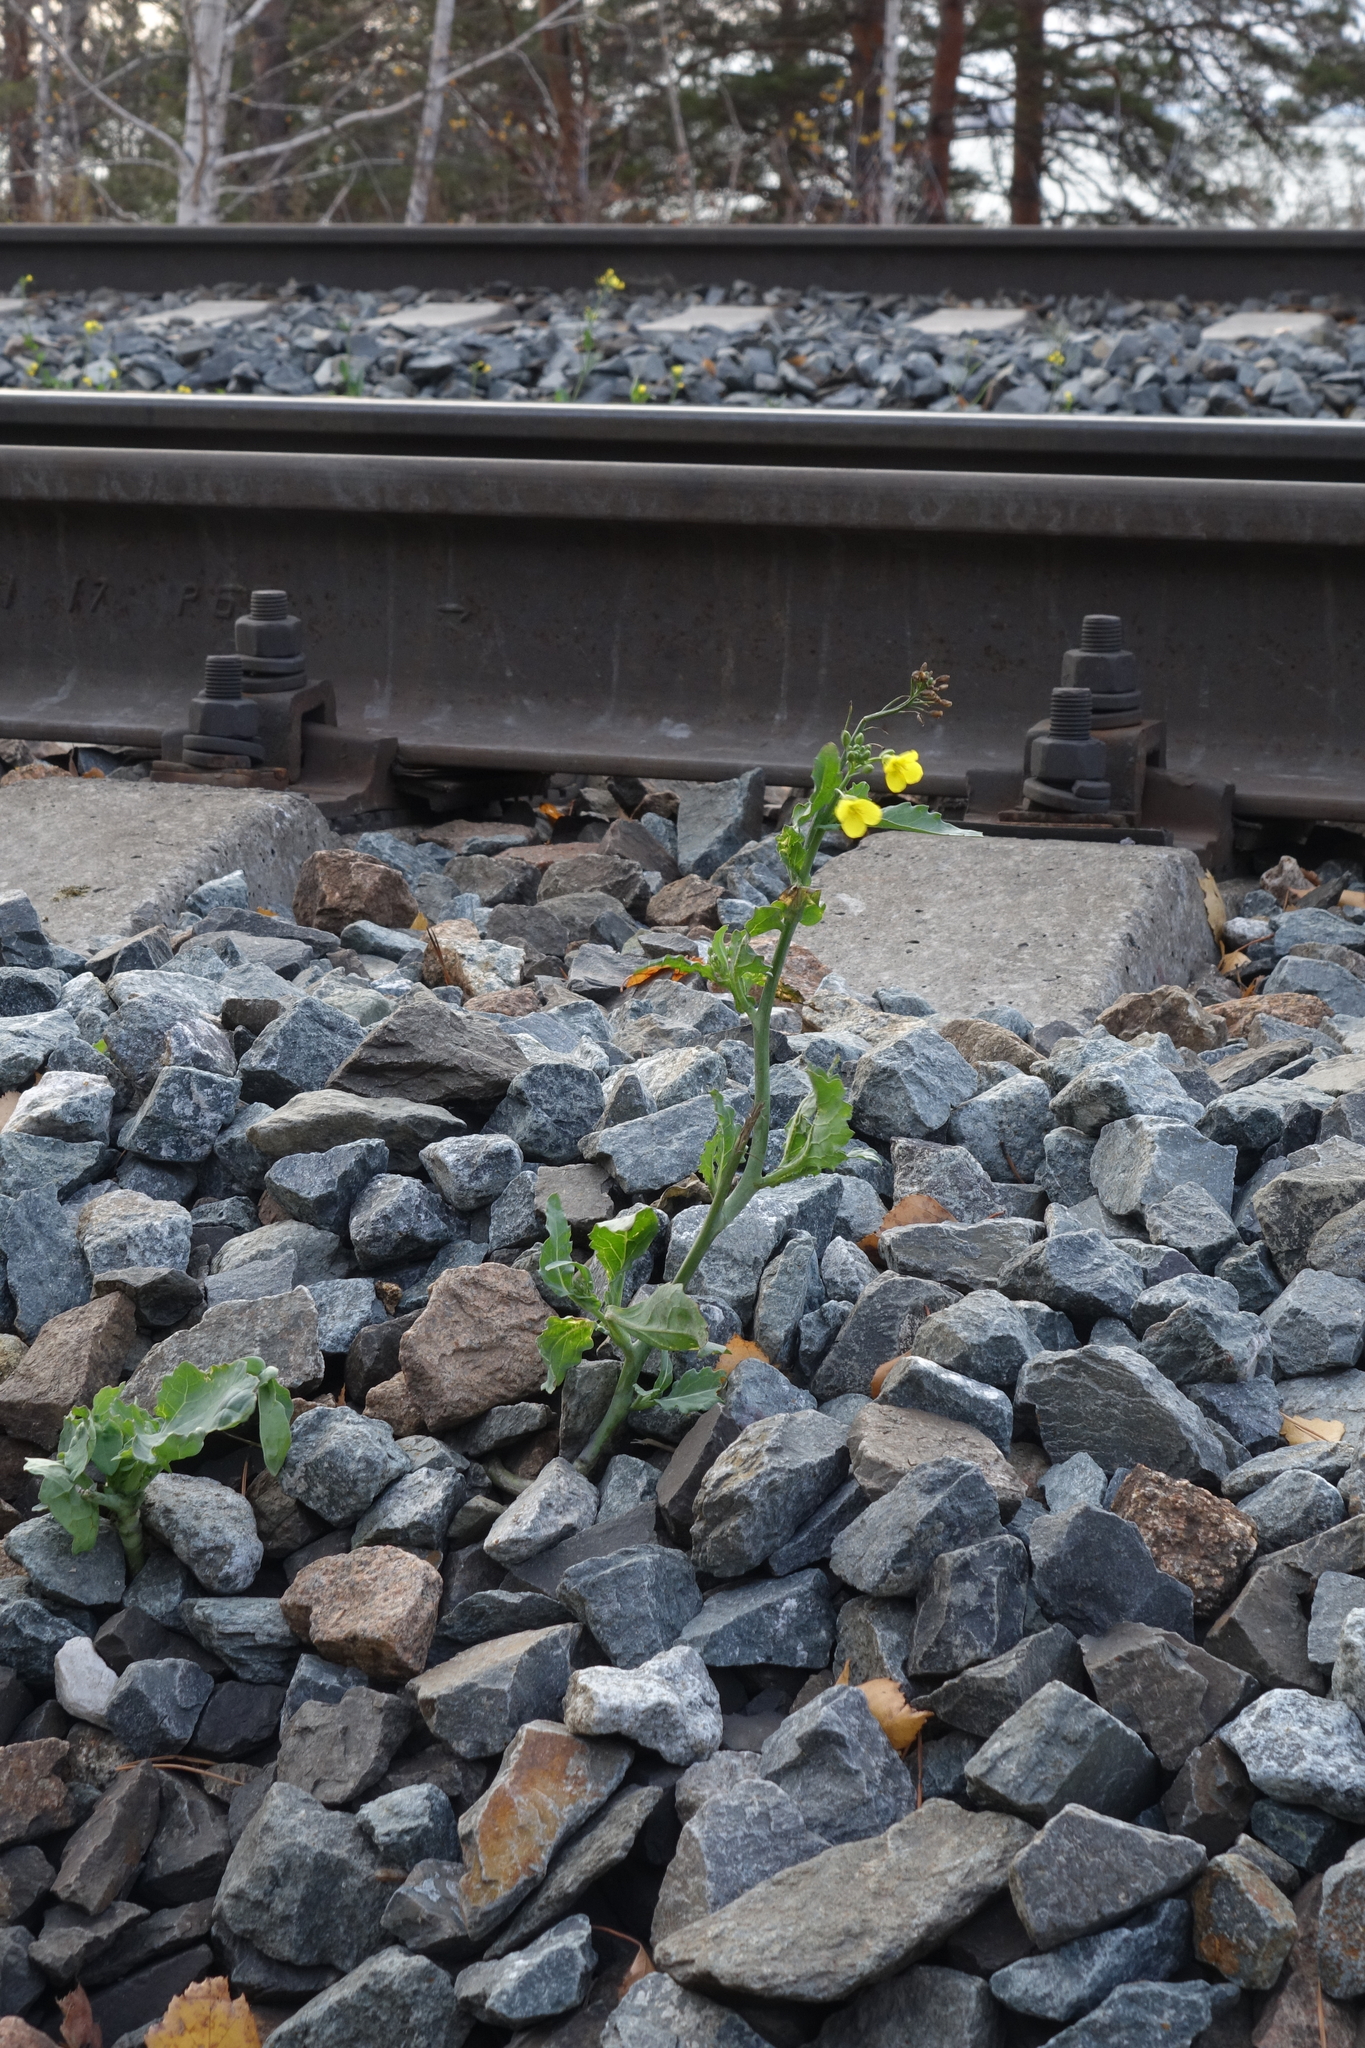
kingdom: Plantae
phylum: Tracheophyta
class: Magnoliopsida
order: Brassicales
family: Brassicaceae
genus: Brassica
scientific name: Brassica napus
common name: Rape
